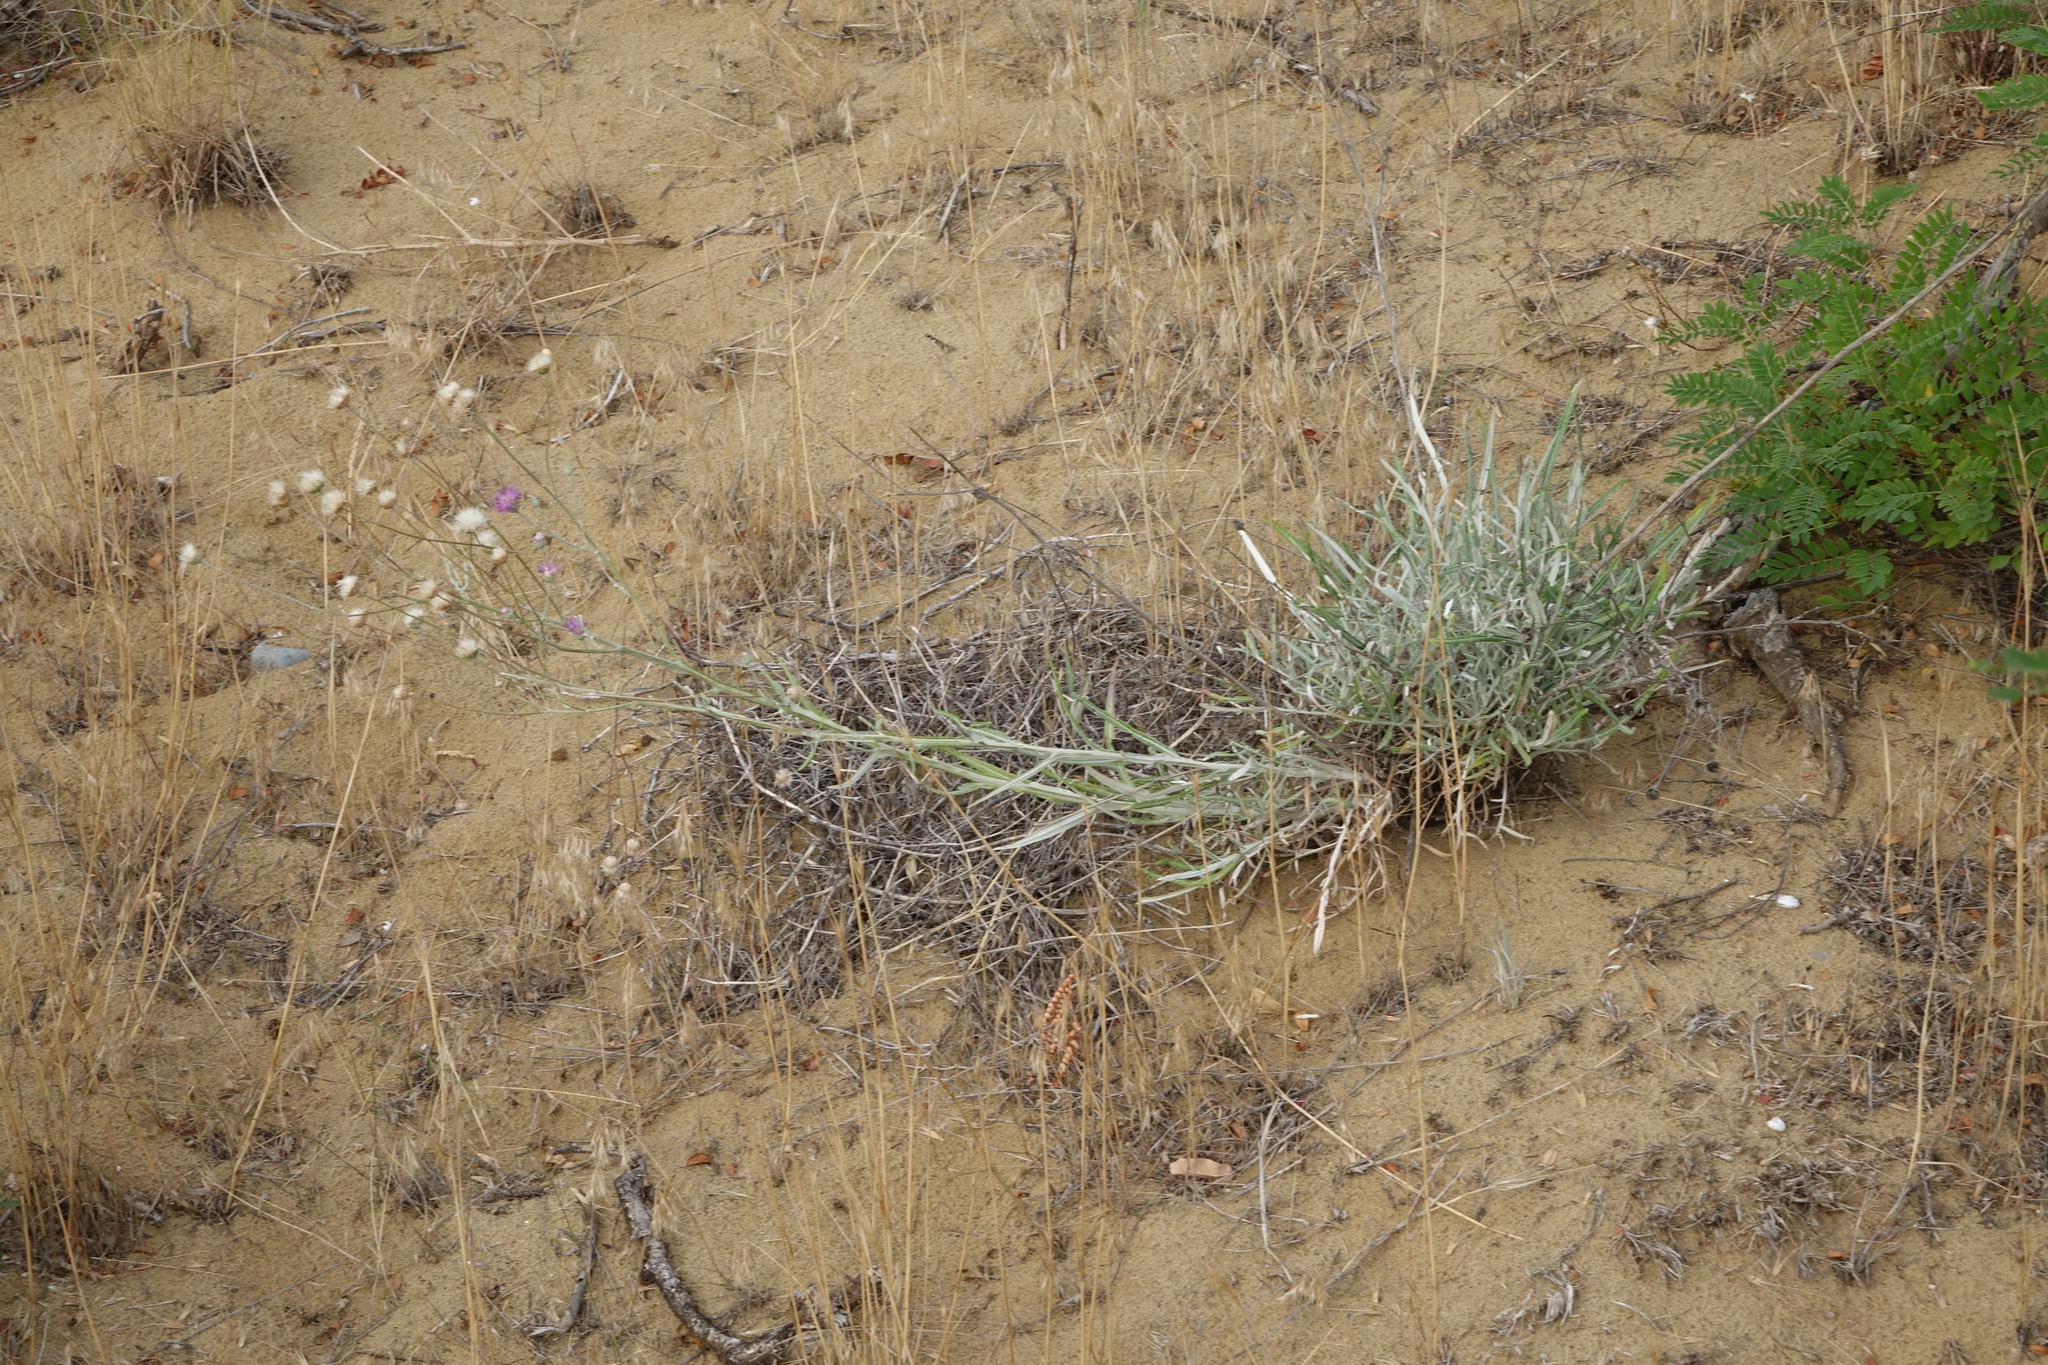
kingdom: Plantae
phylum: Tracheophyta
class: Magnoliopsida
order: Asterales
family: Asteraceae
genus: Jurinea
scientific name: Jurinea ciscaucasica
